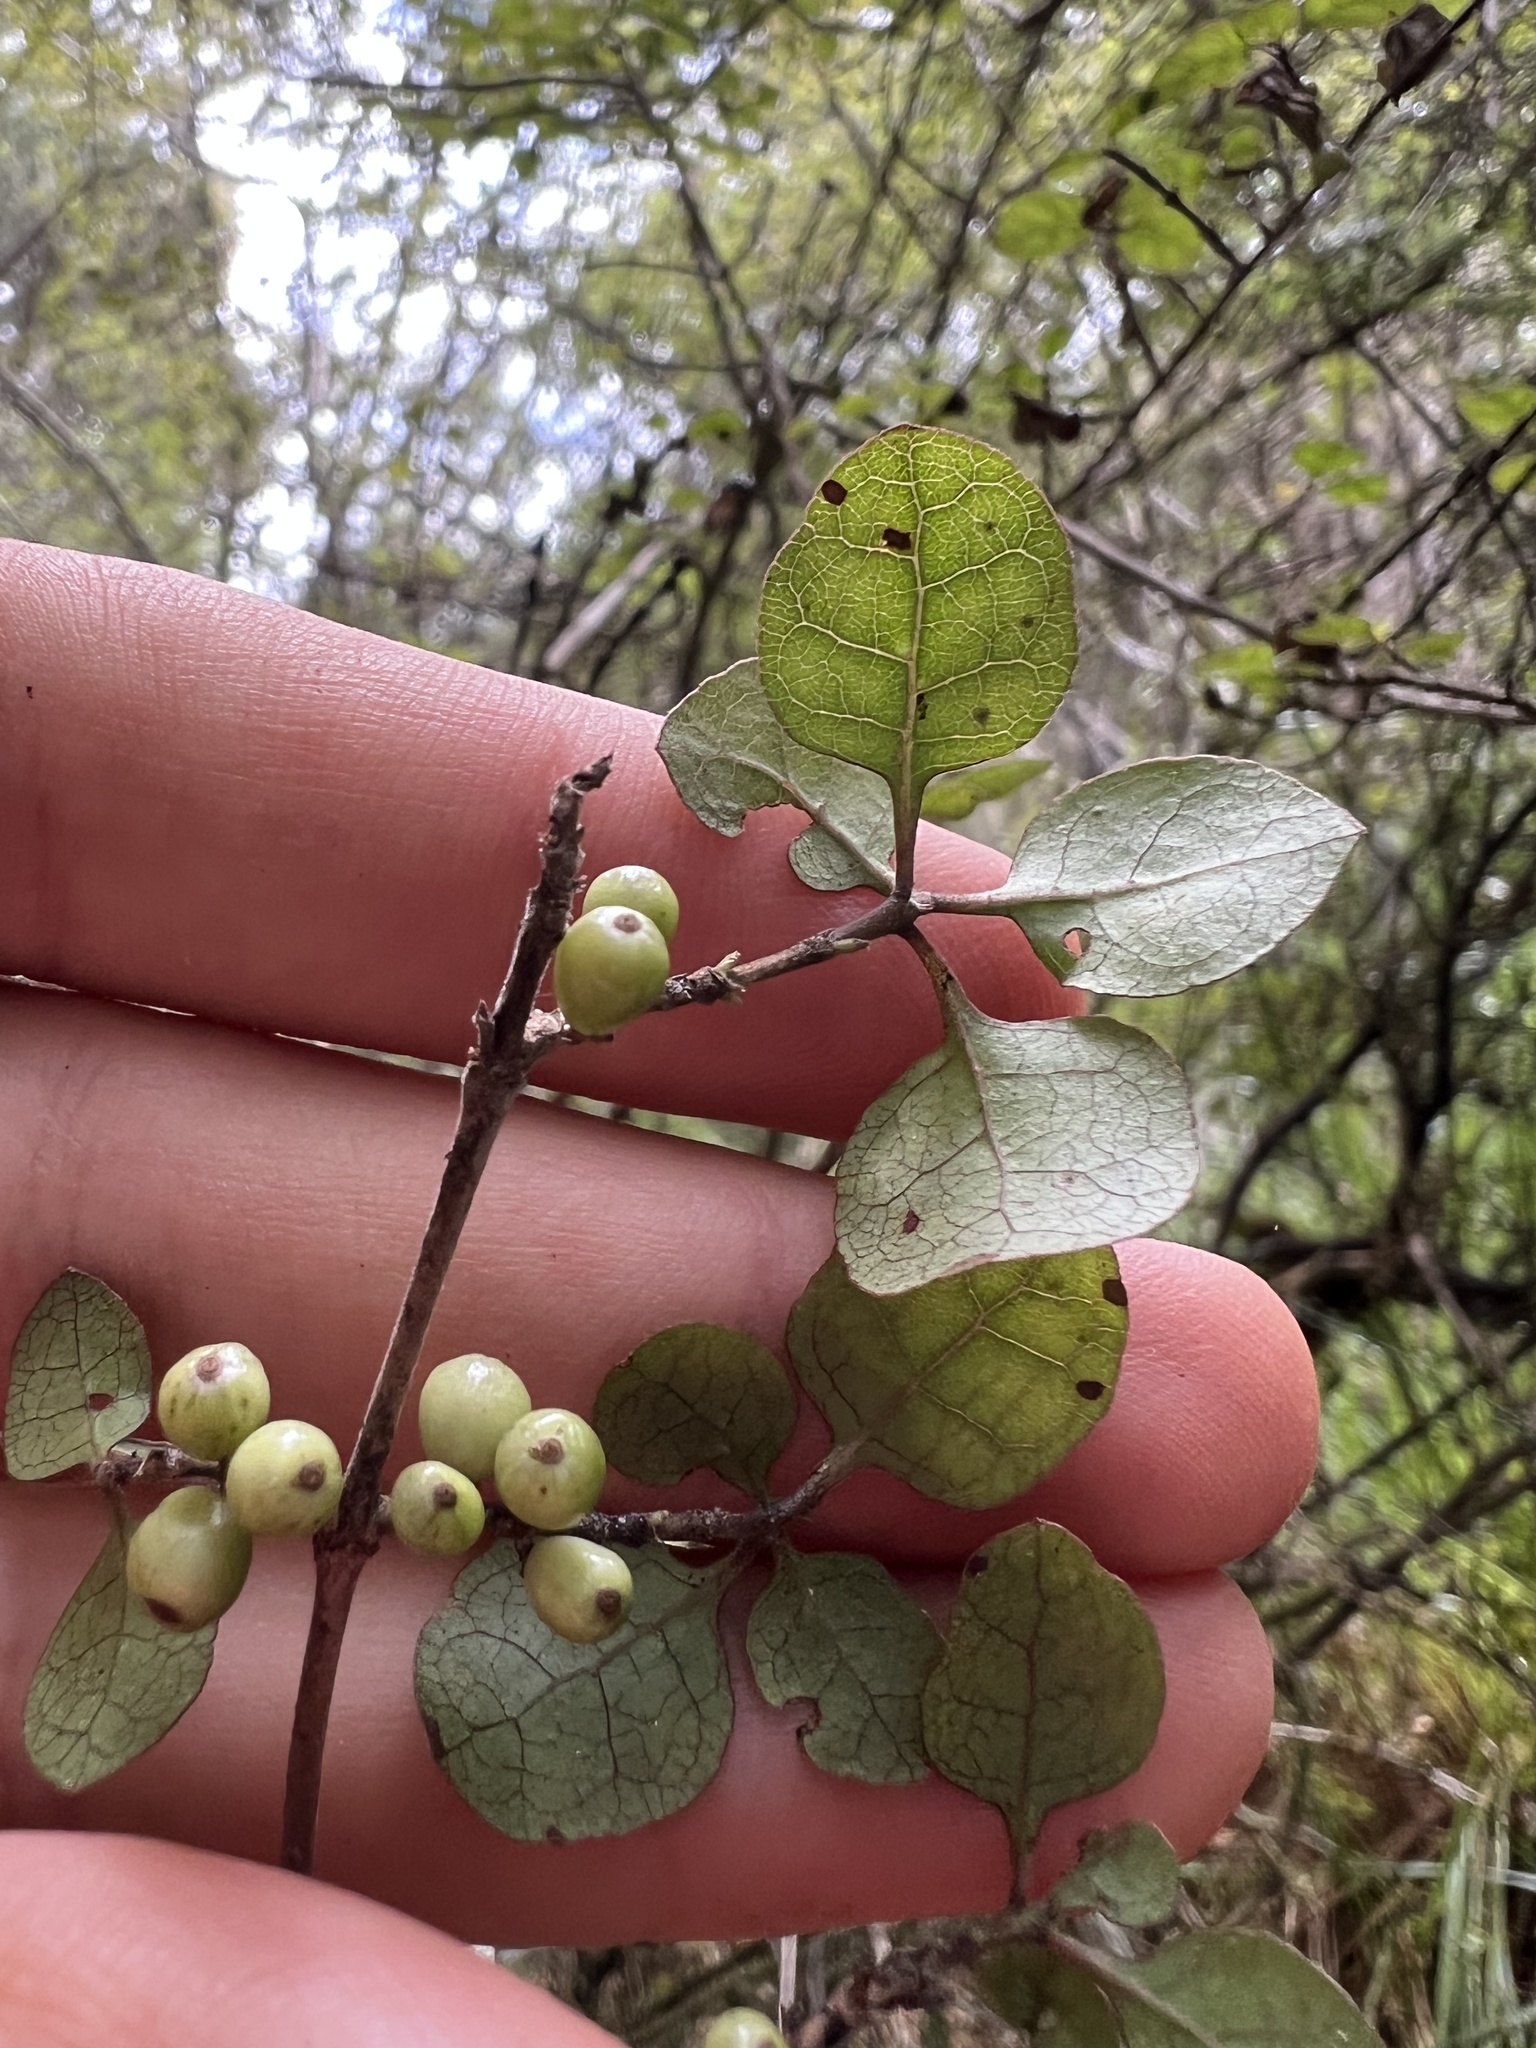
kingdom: Plantae
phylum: Tracheophyta
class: Magnoliopsida
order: Gentianales
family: Rubiaceae
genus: Coprosma
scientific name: Coprosma tenuicaulis
